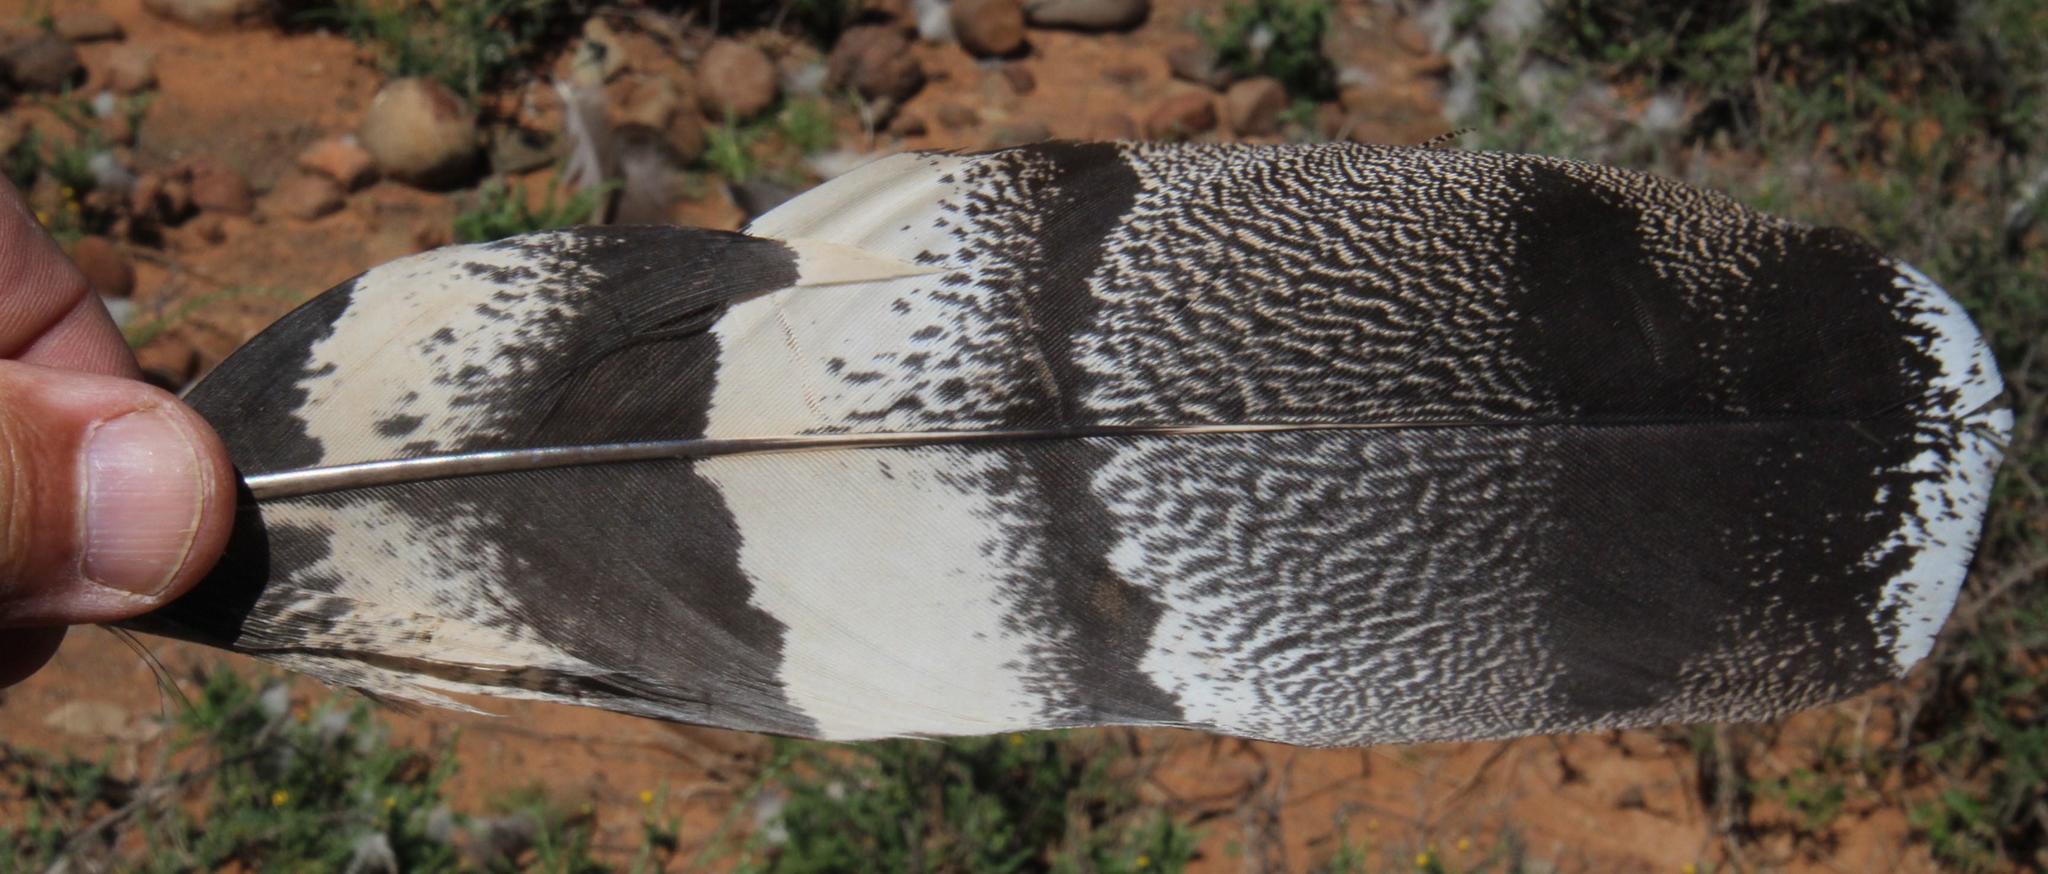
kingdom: Animalia
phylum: Chordata
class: Aves
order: Otidiformes
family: Otididae
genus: Ardeotis
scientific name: Ardeotis kori
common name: Kori bustard
